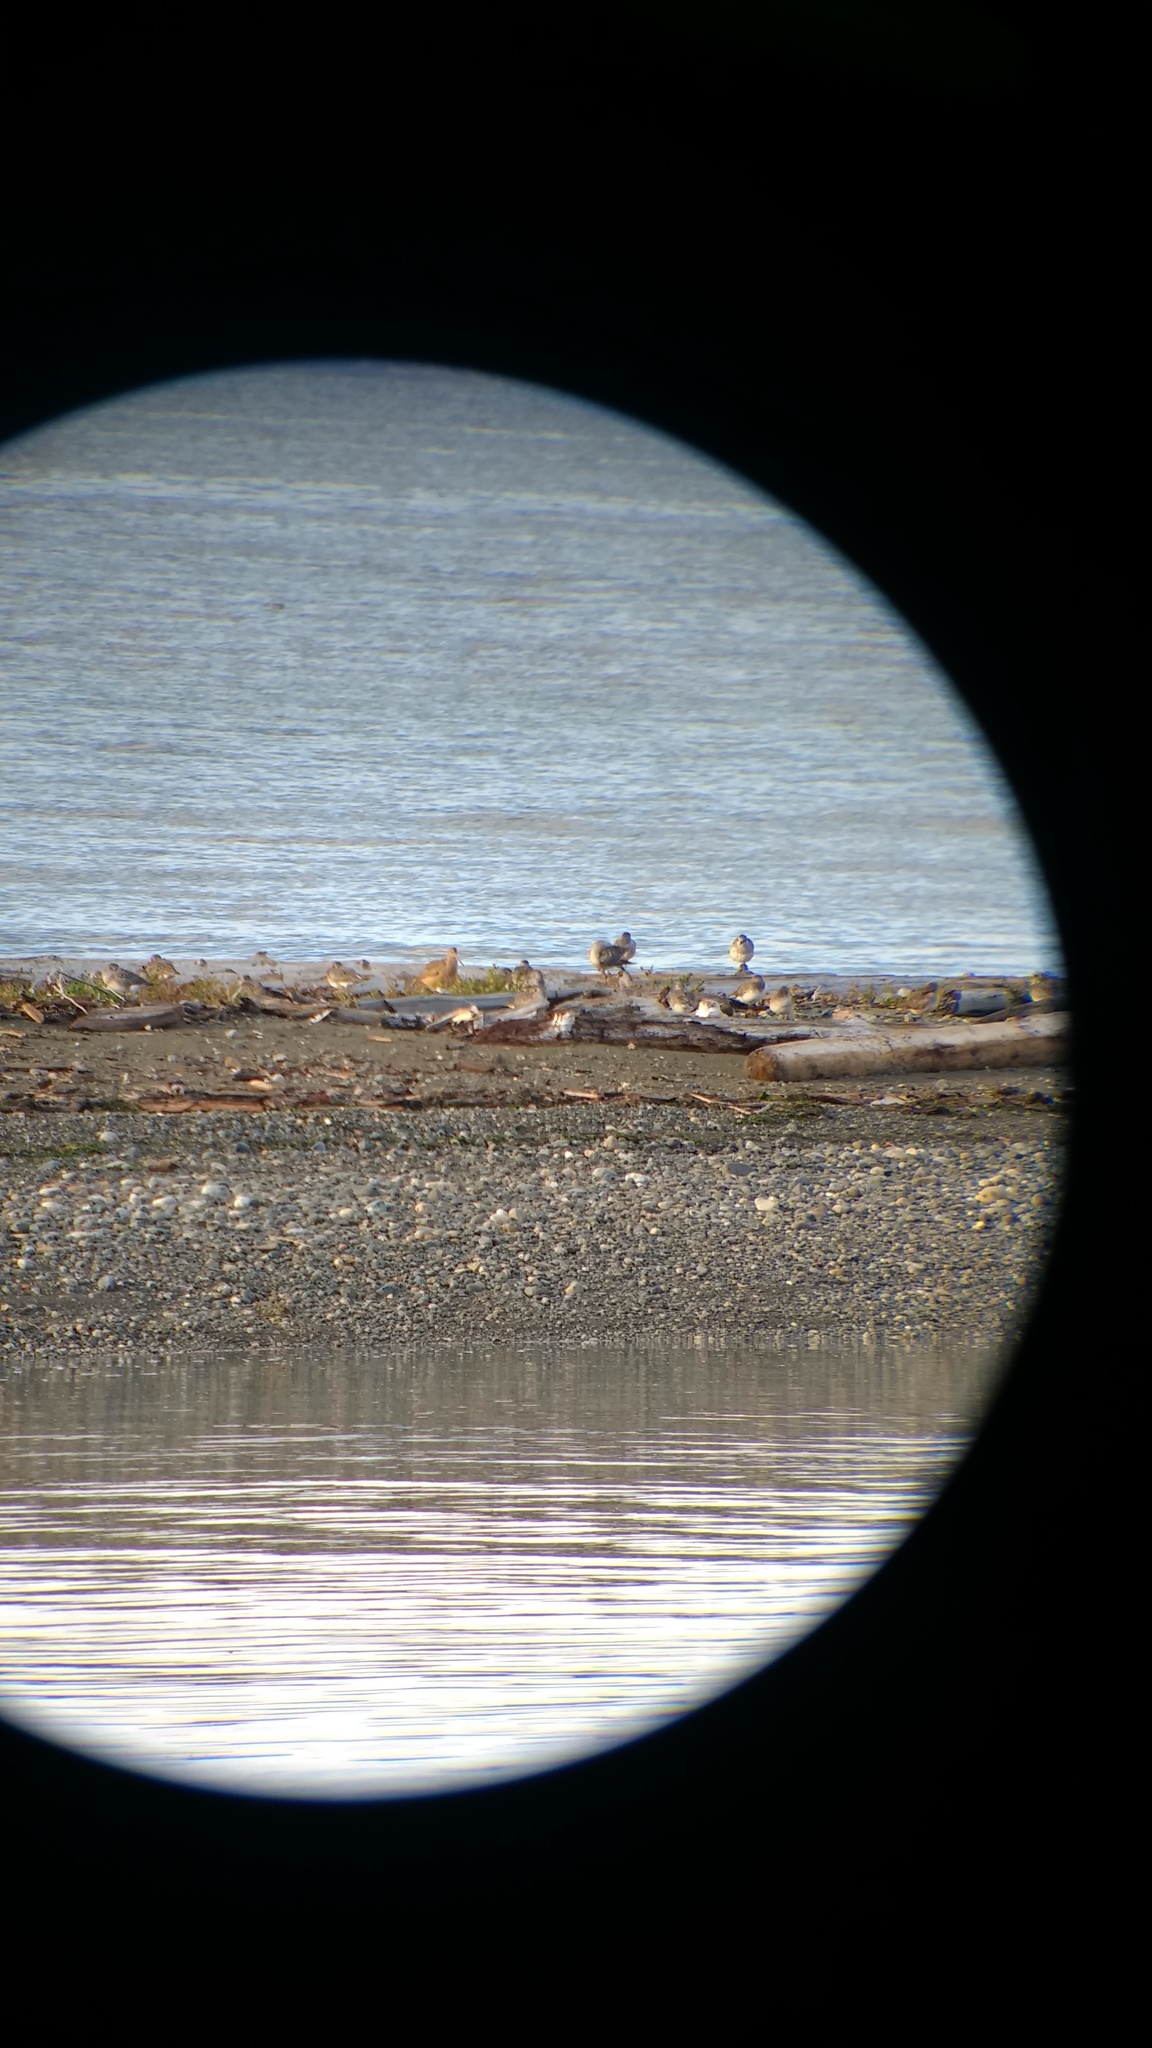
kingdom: Animalia
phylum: Chordata
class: Aves
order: Charadriiformes
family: Scolopacidae
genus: Limosa
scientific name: Limosa fedoa
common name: Marbled godwit
